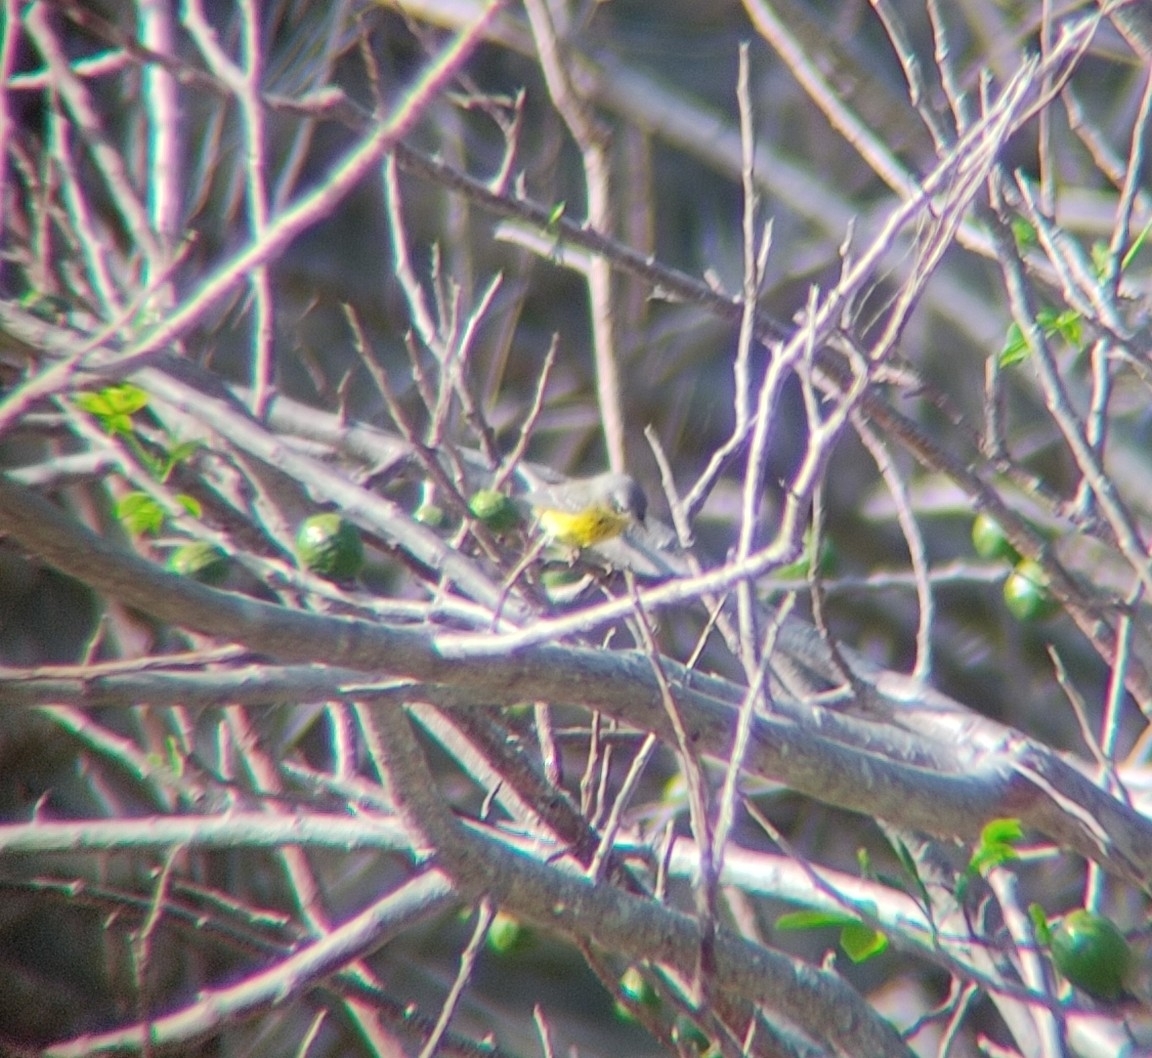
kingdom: Animalia
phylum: Chordata
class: Aves
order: Passeriformes
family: Parulidae
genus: Setophaga
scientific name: Setophaga magnolia
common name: Magnolia warbler
